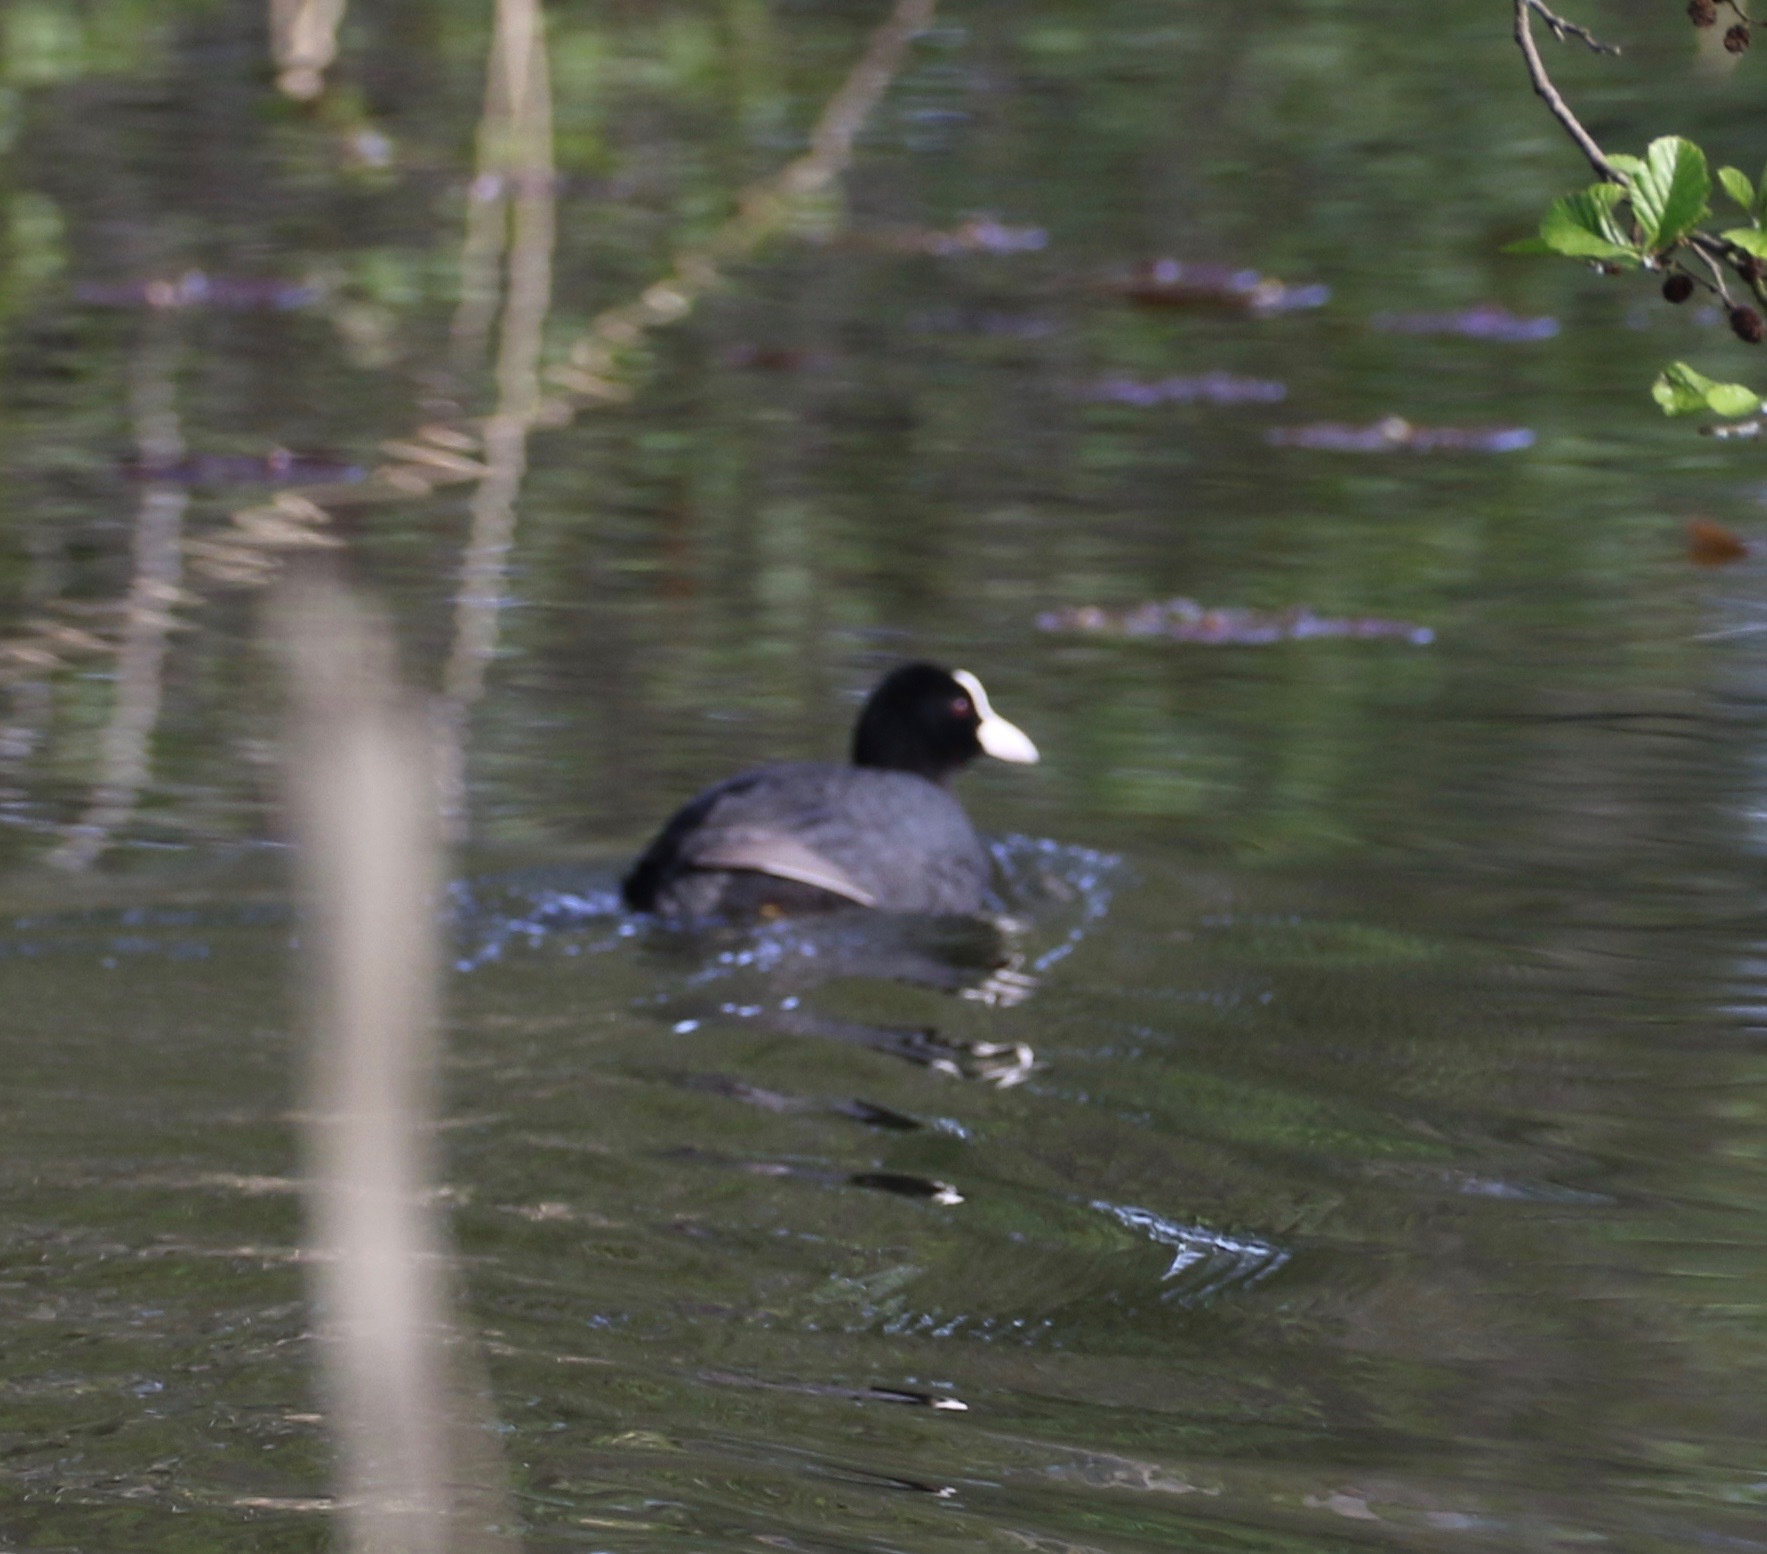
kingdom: Animalia
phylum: Chordata
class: Aves
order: Gruiformes
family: Rallidae
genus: Fulica
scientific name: Fulica atra
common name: Eurasian coot
